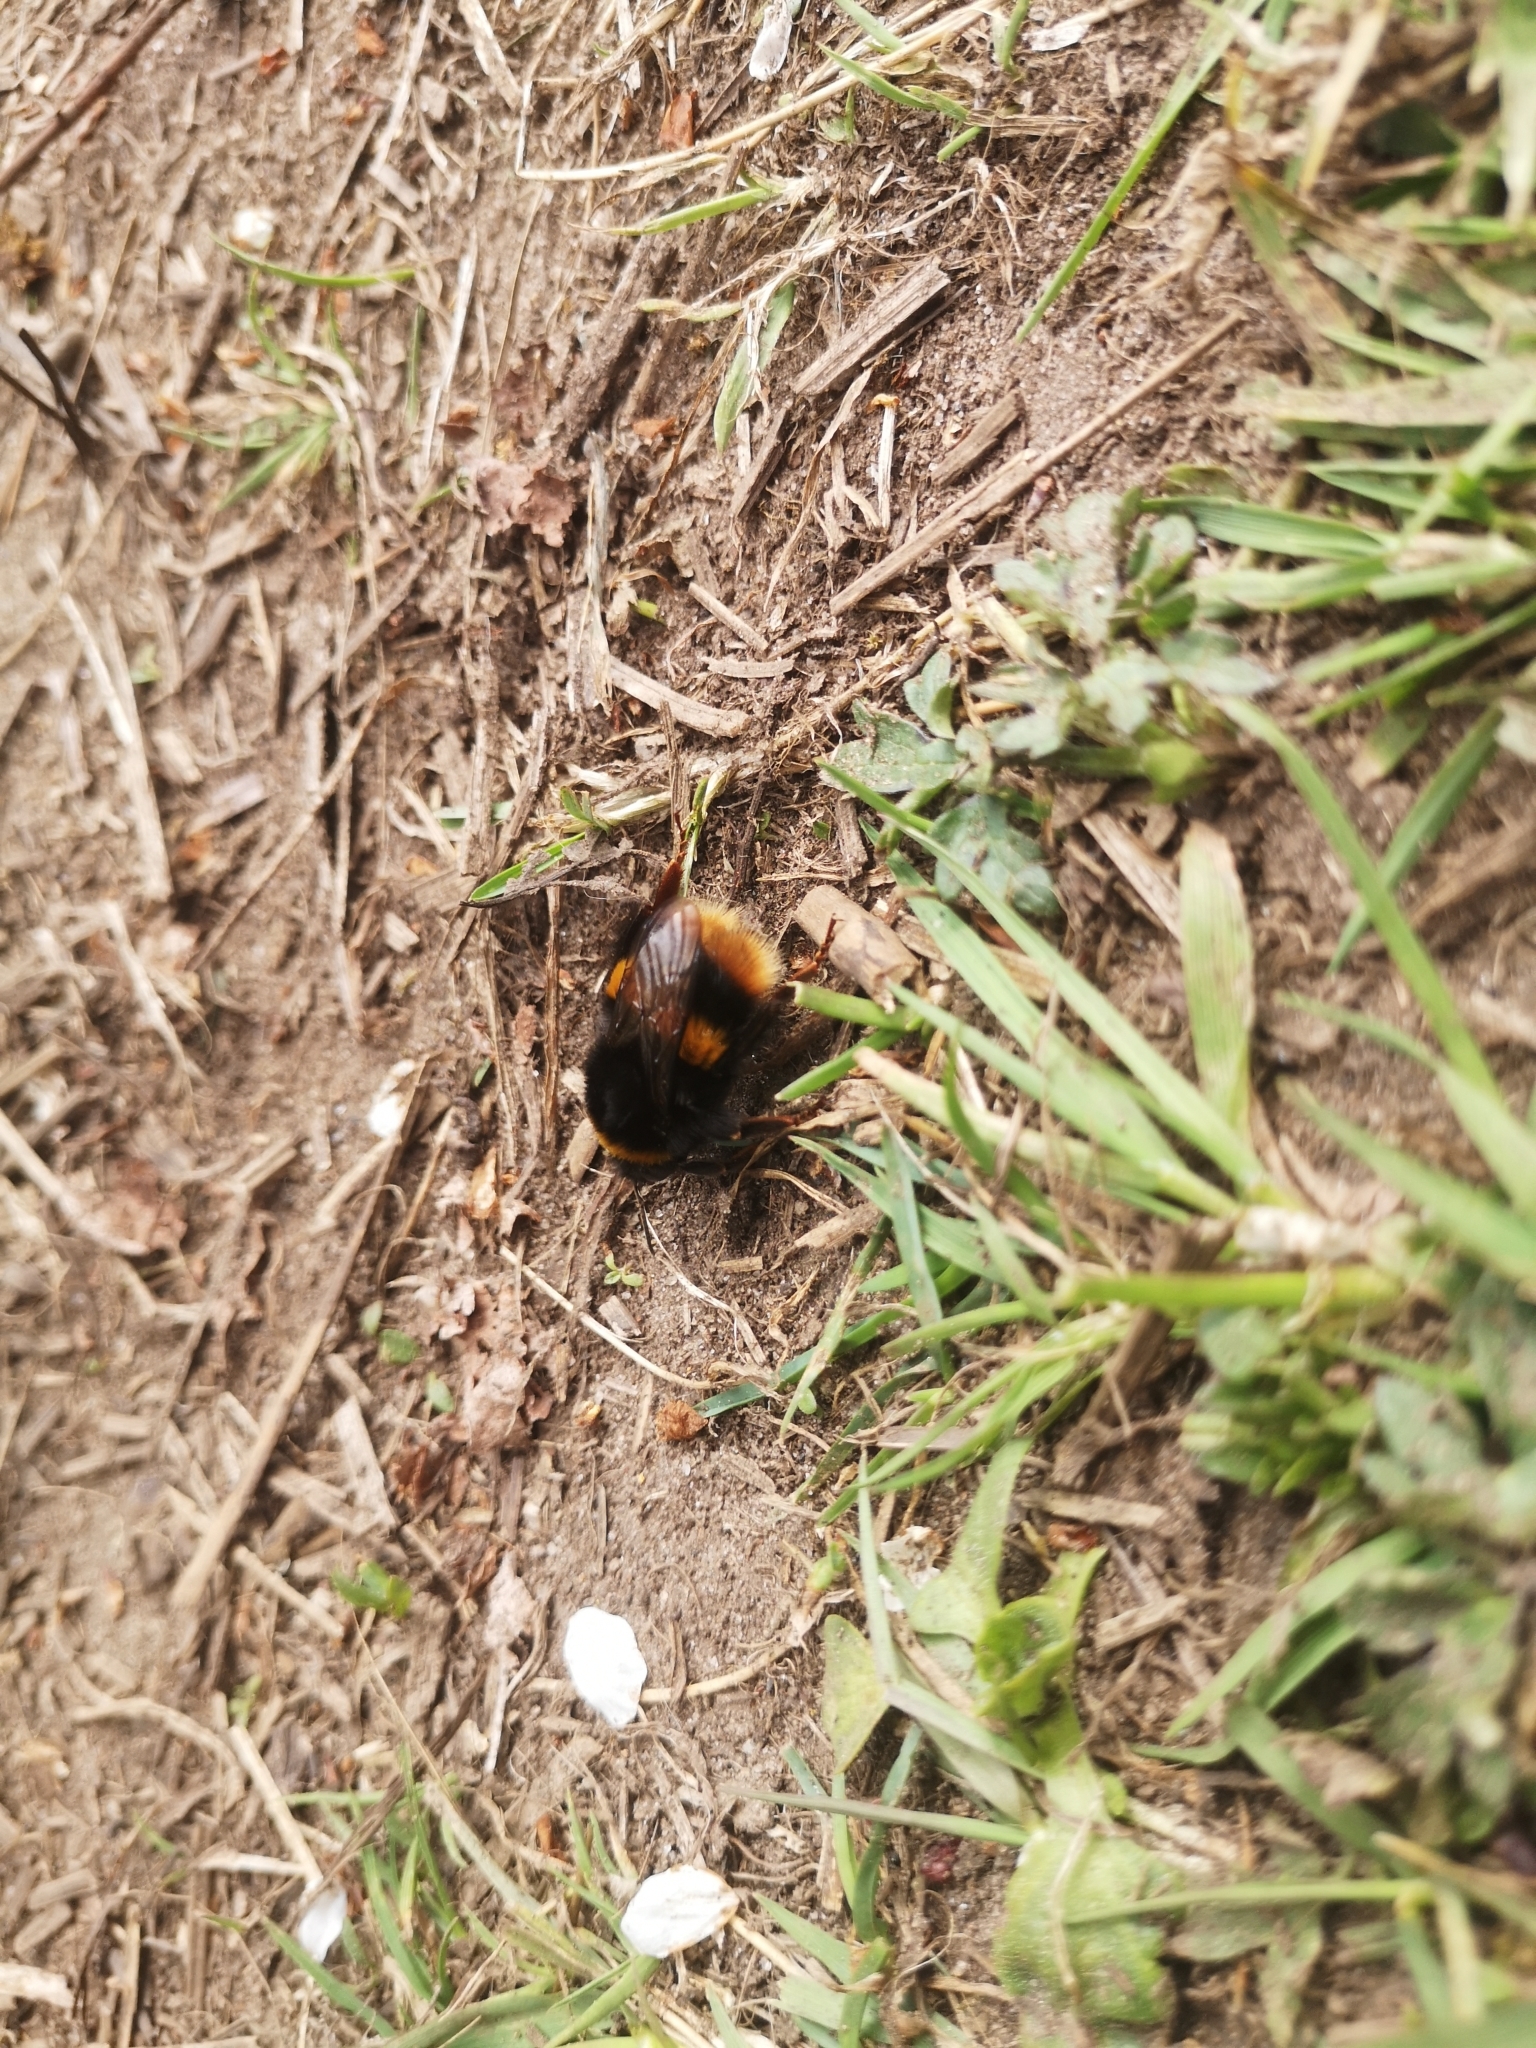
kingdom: Animalia
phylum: Arthropoda
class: Insecta
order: Hymenoptera
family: Apidae
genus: Bombus
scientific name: Bombus terrestris
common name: Buff-tailed bumblebee
